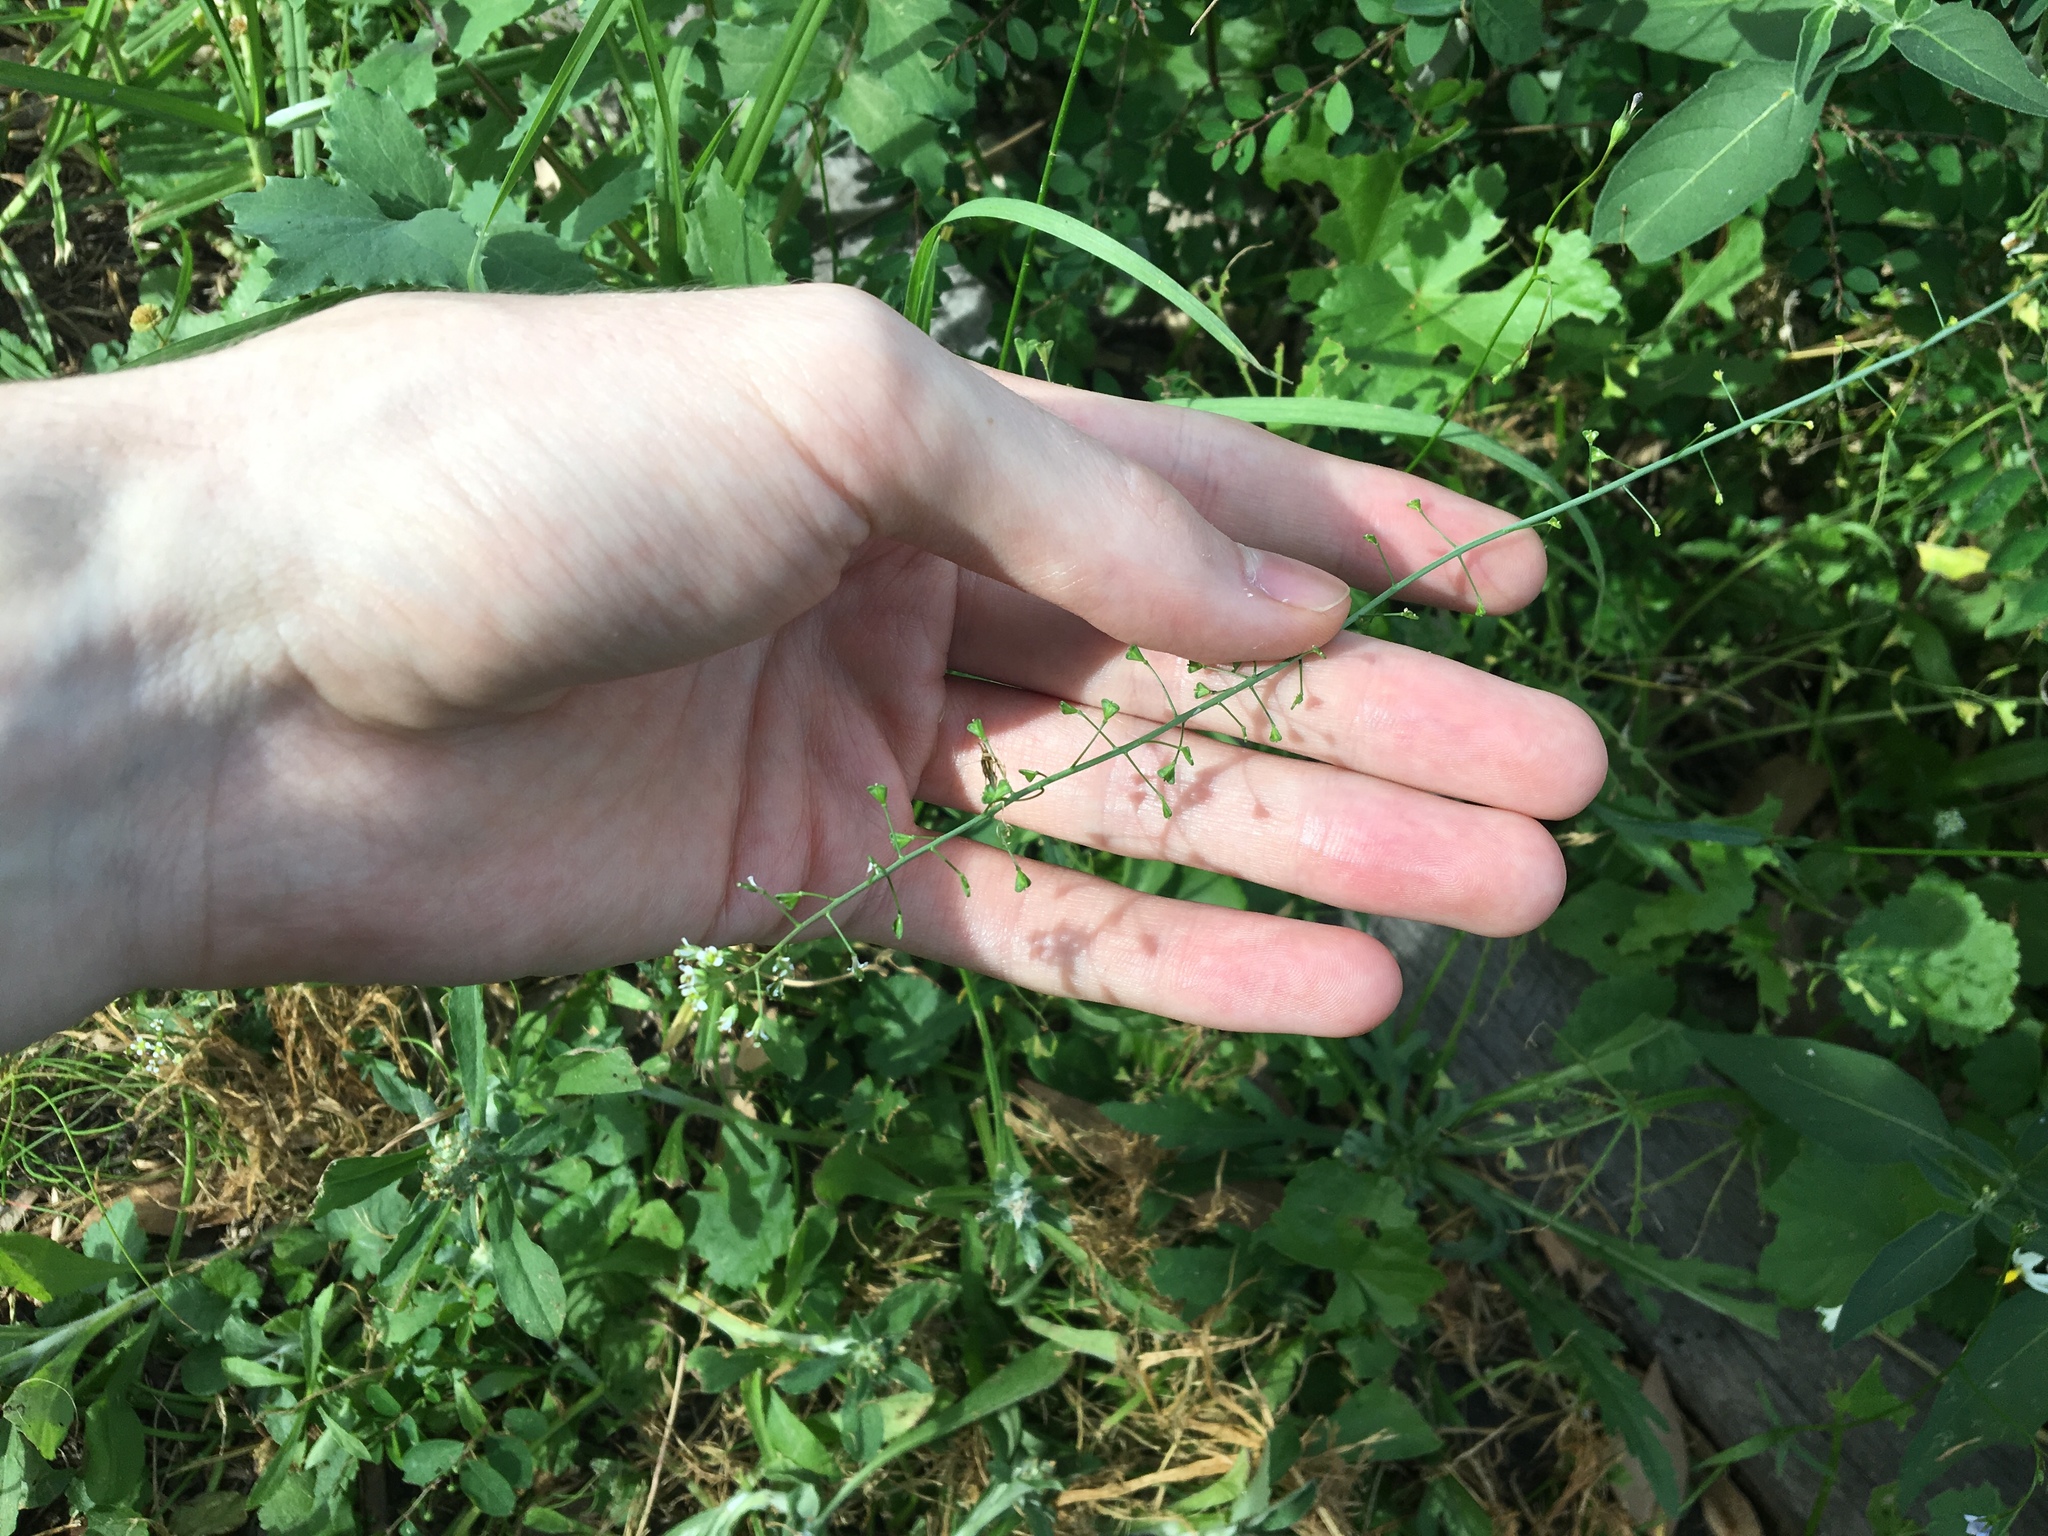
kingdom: Plantae
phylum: Tracheophyta
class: Magnoliopsida
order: Brassicales
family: Brassicaceae
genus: Capsella
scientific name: Capsella bursa-pastoris
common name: Shepherd's purse
